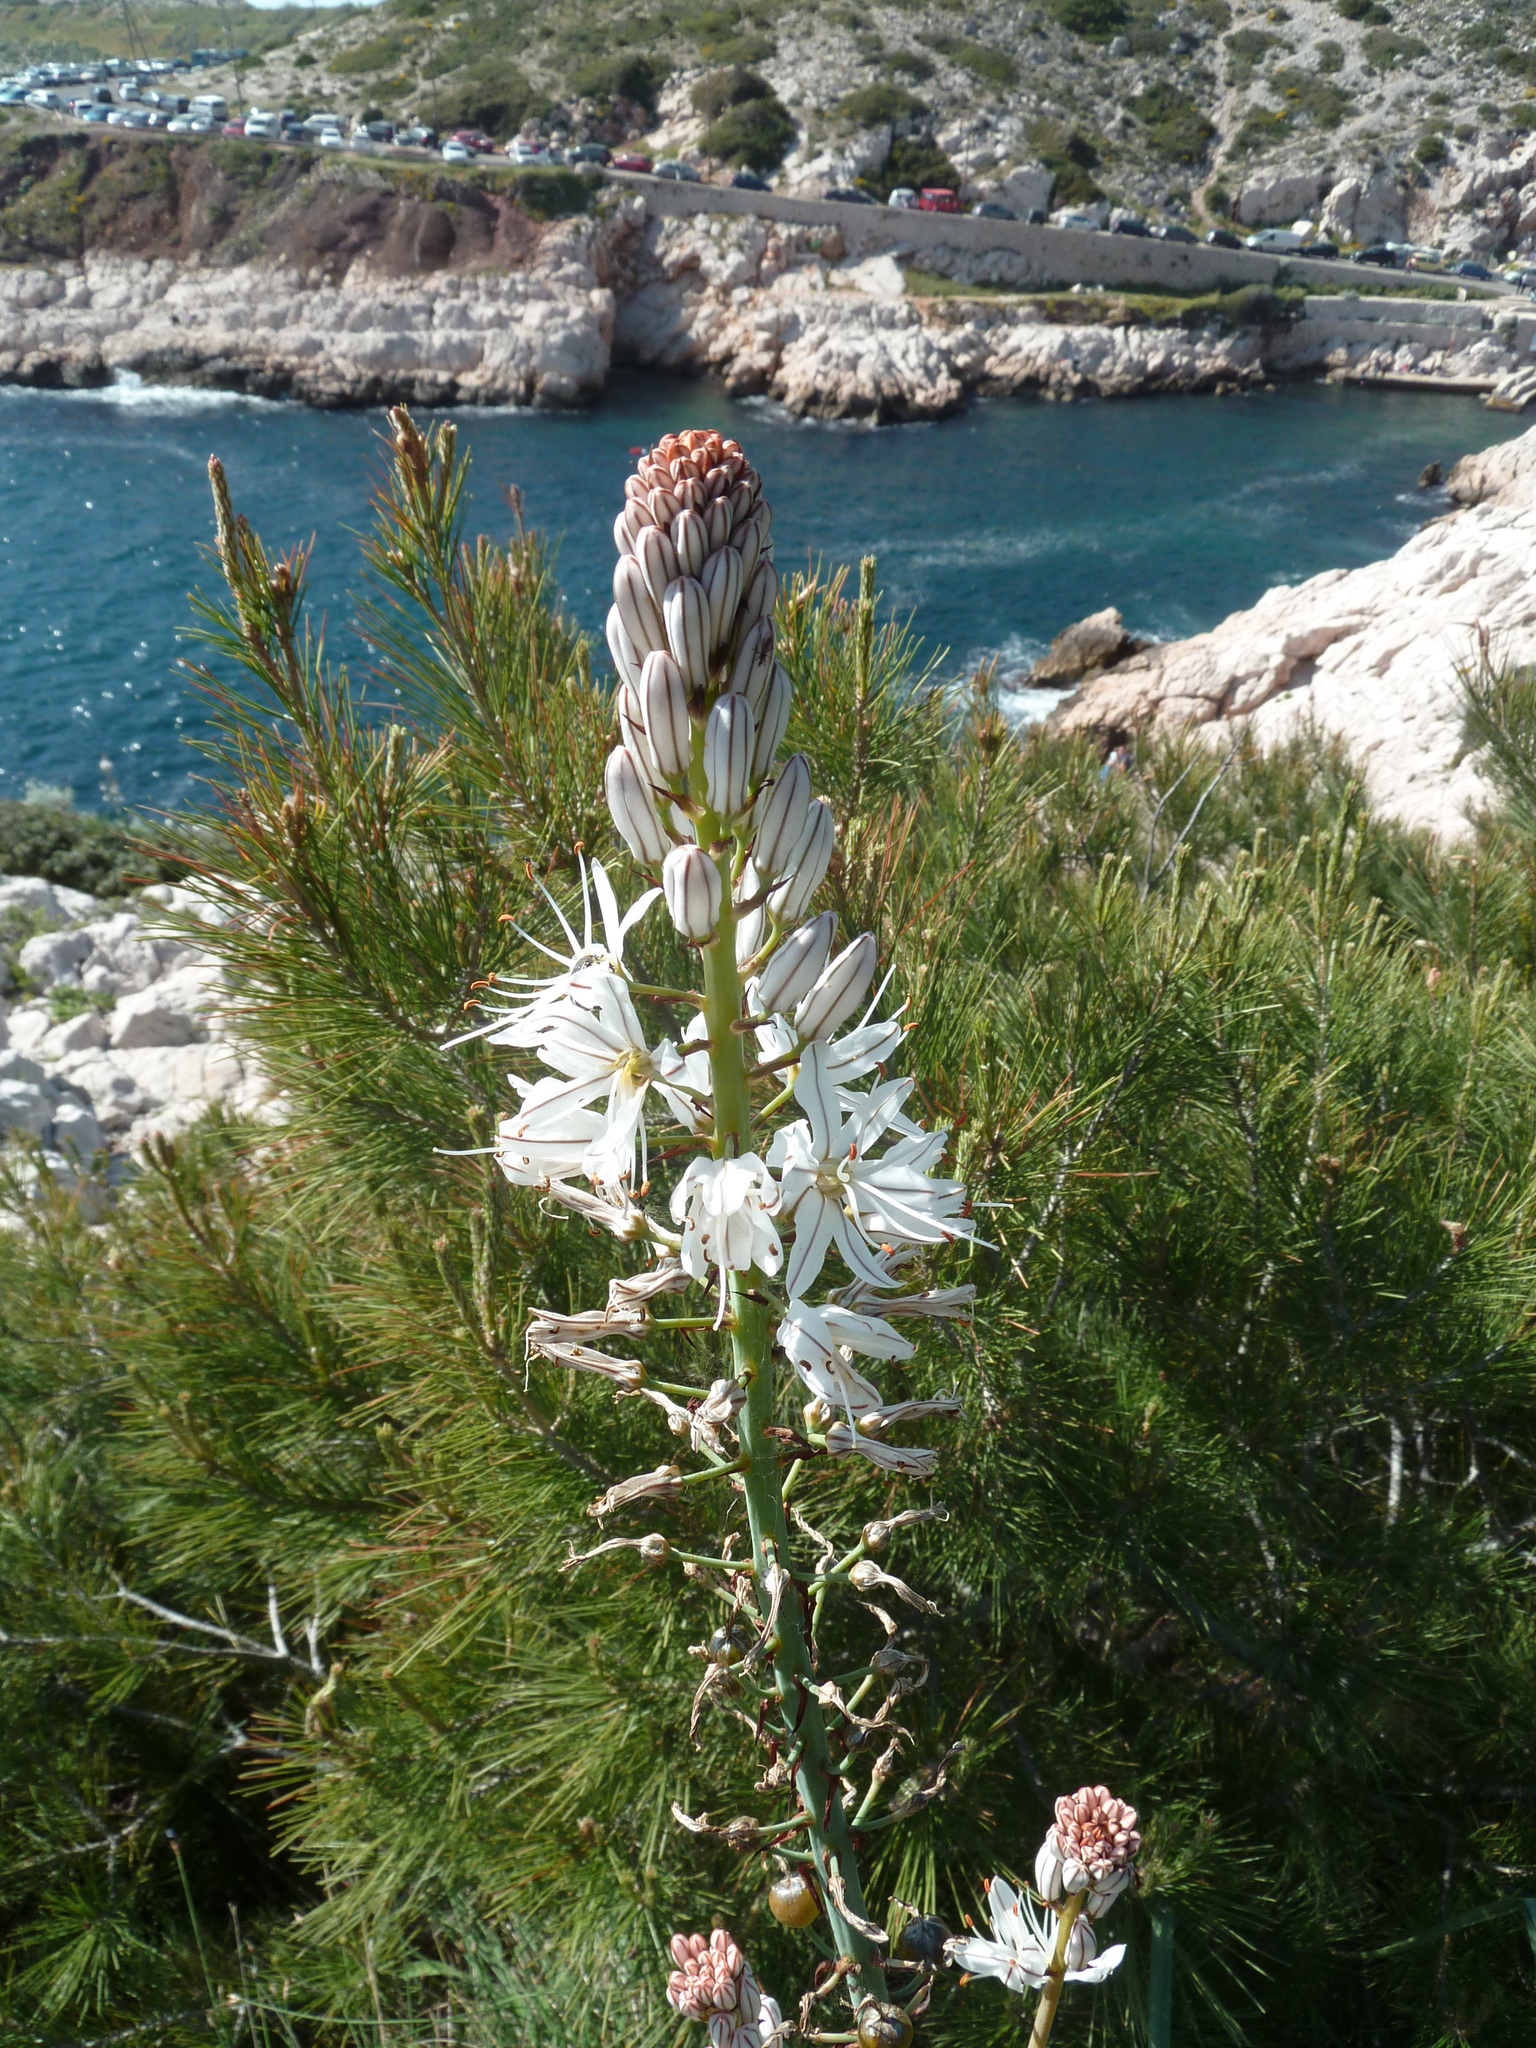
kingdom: Plantae
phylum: Tracheophyta
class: Liliopsida
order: Asparagales
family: Asphodelaceae
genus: Asphodelus
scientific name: Asphodelus cerasifer
